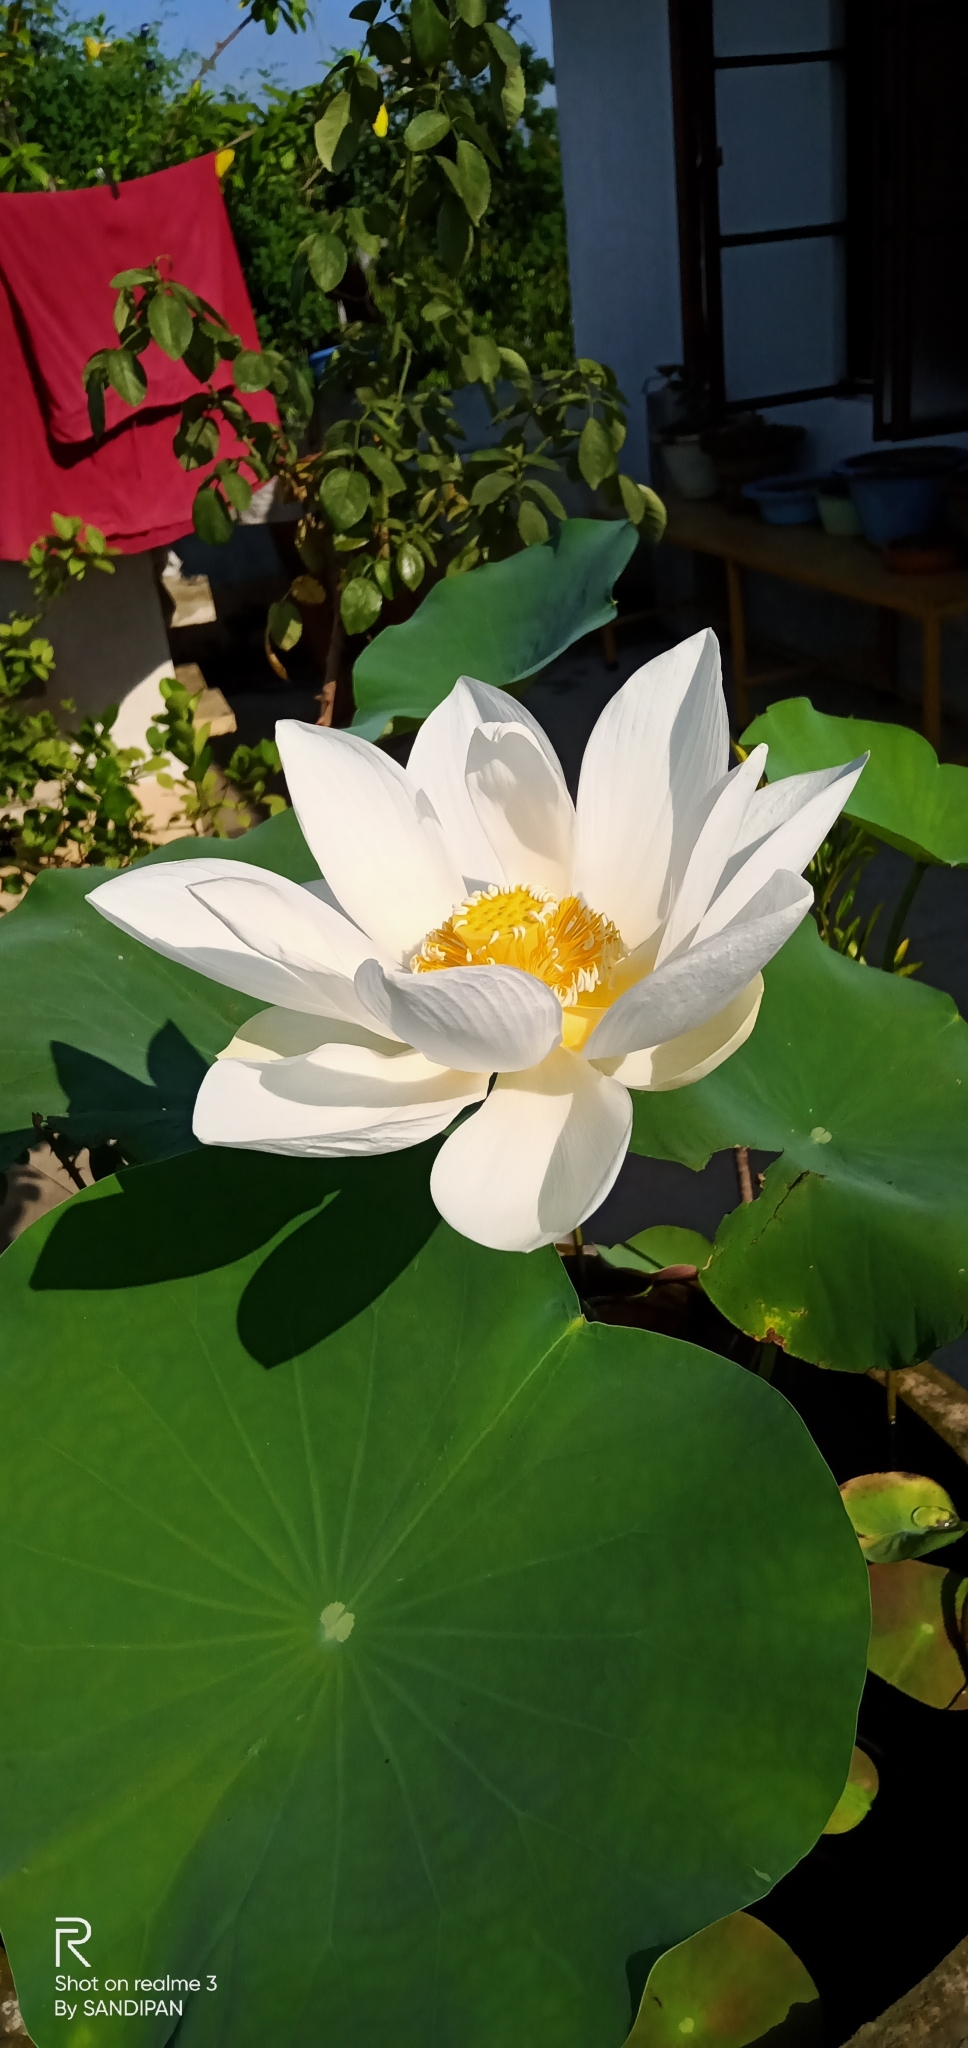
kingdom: Plantae
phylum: Tracheophyta
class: Magnoliopsida
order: Proteales
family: Nelumbonaceae
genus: Nelumbo
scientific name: Nelumbo nucifera
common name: Sacred lotus
